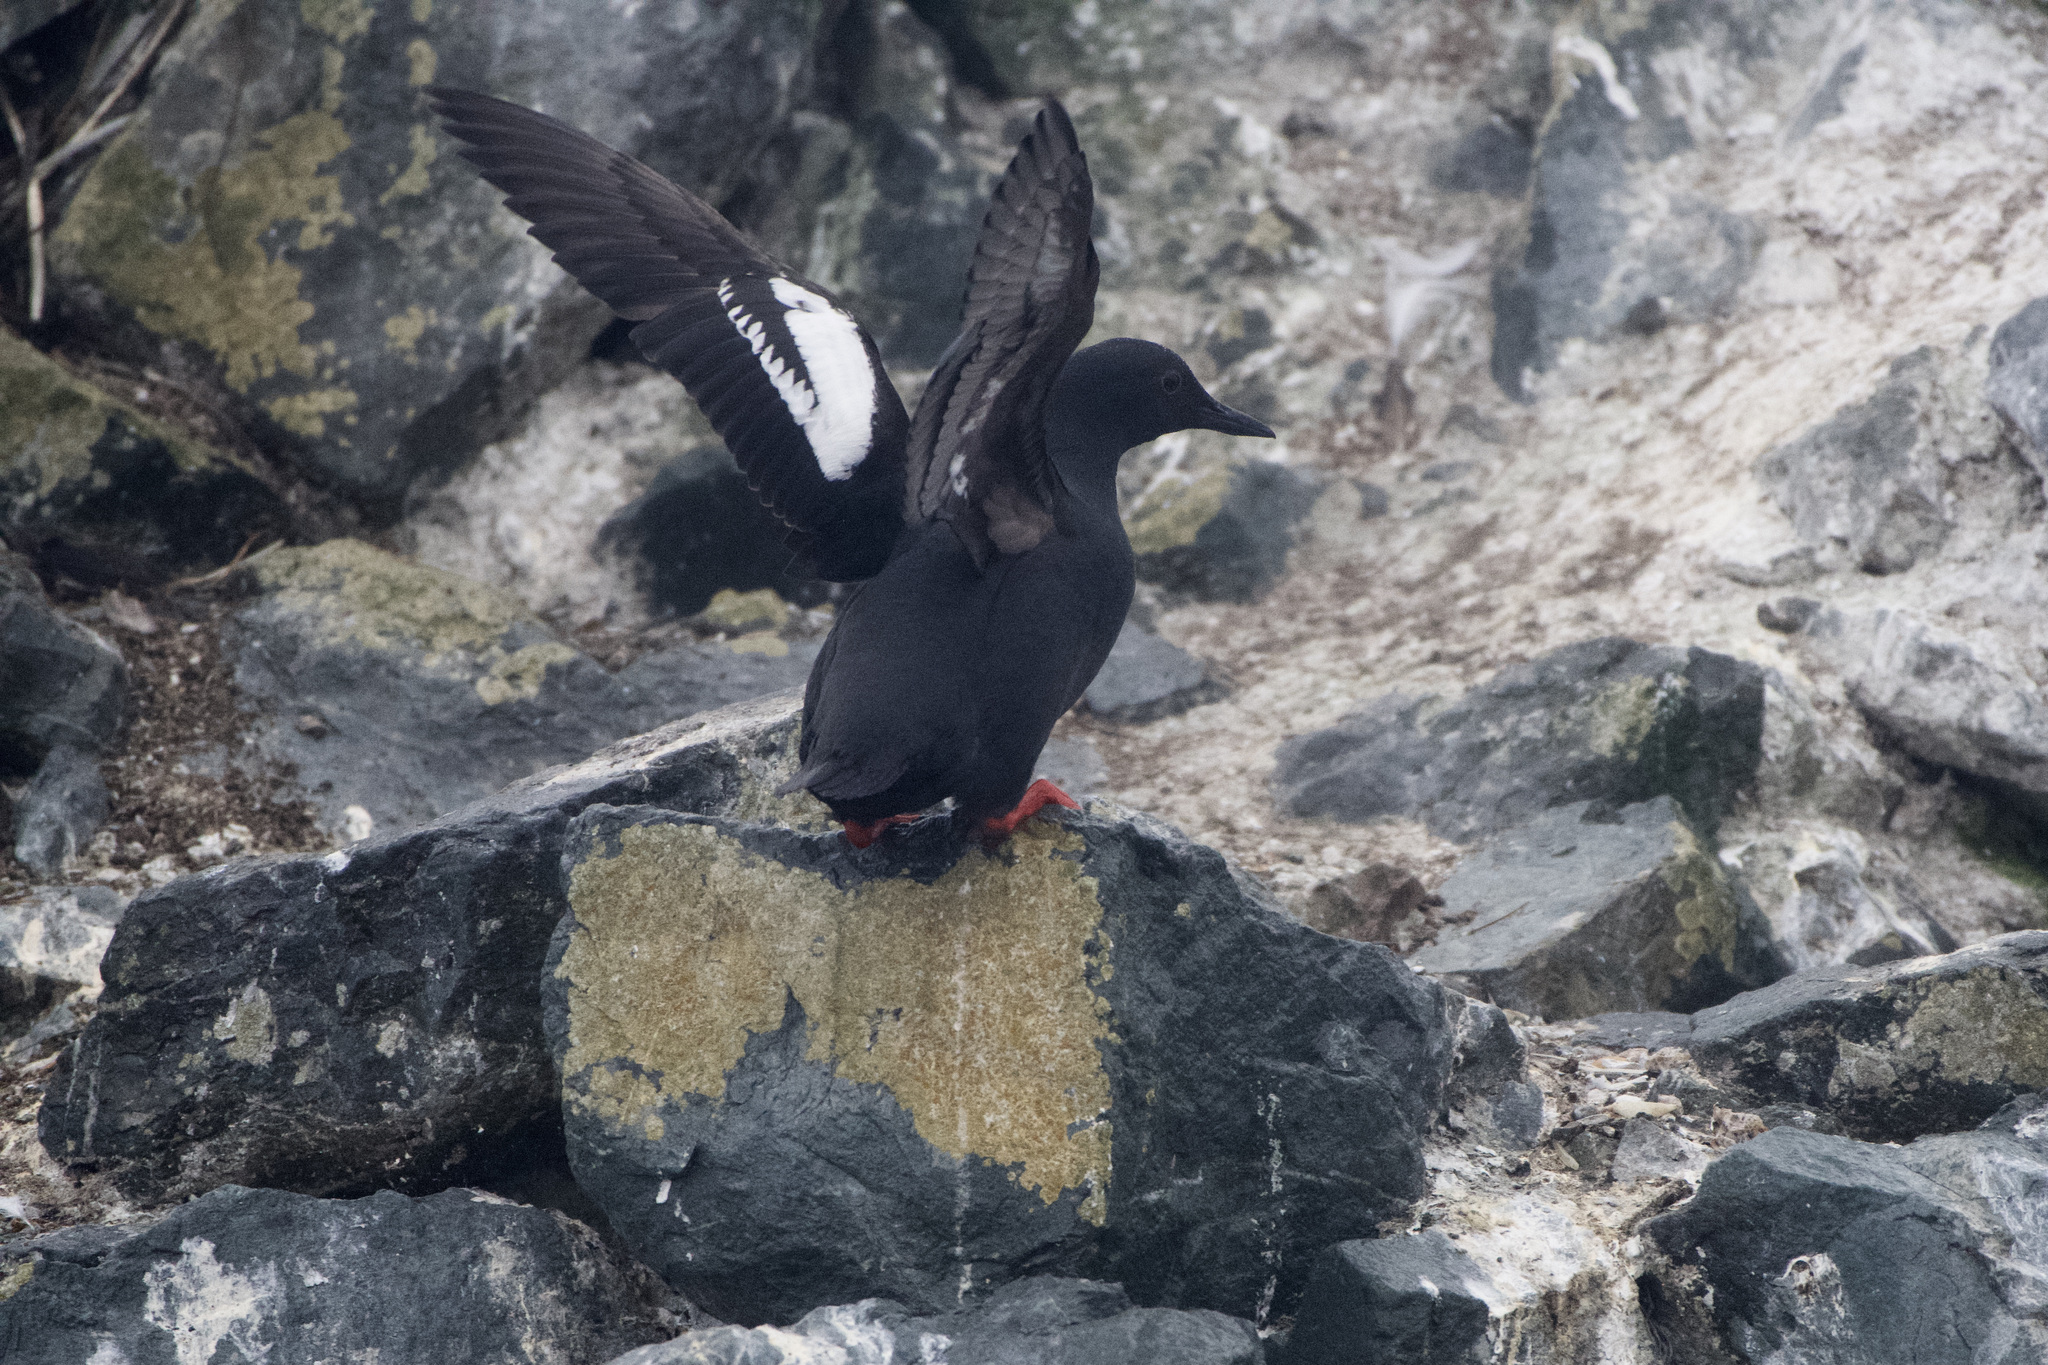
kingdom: Animalia
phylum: Chordata
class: Aves
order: Charadriiformes
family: Alcidae
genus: Cepphus
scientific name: Cepphus columba
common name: Pigeon guillemot
